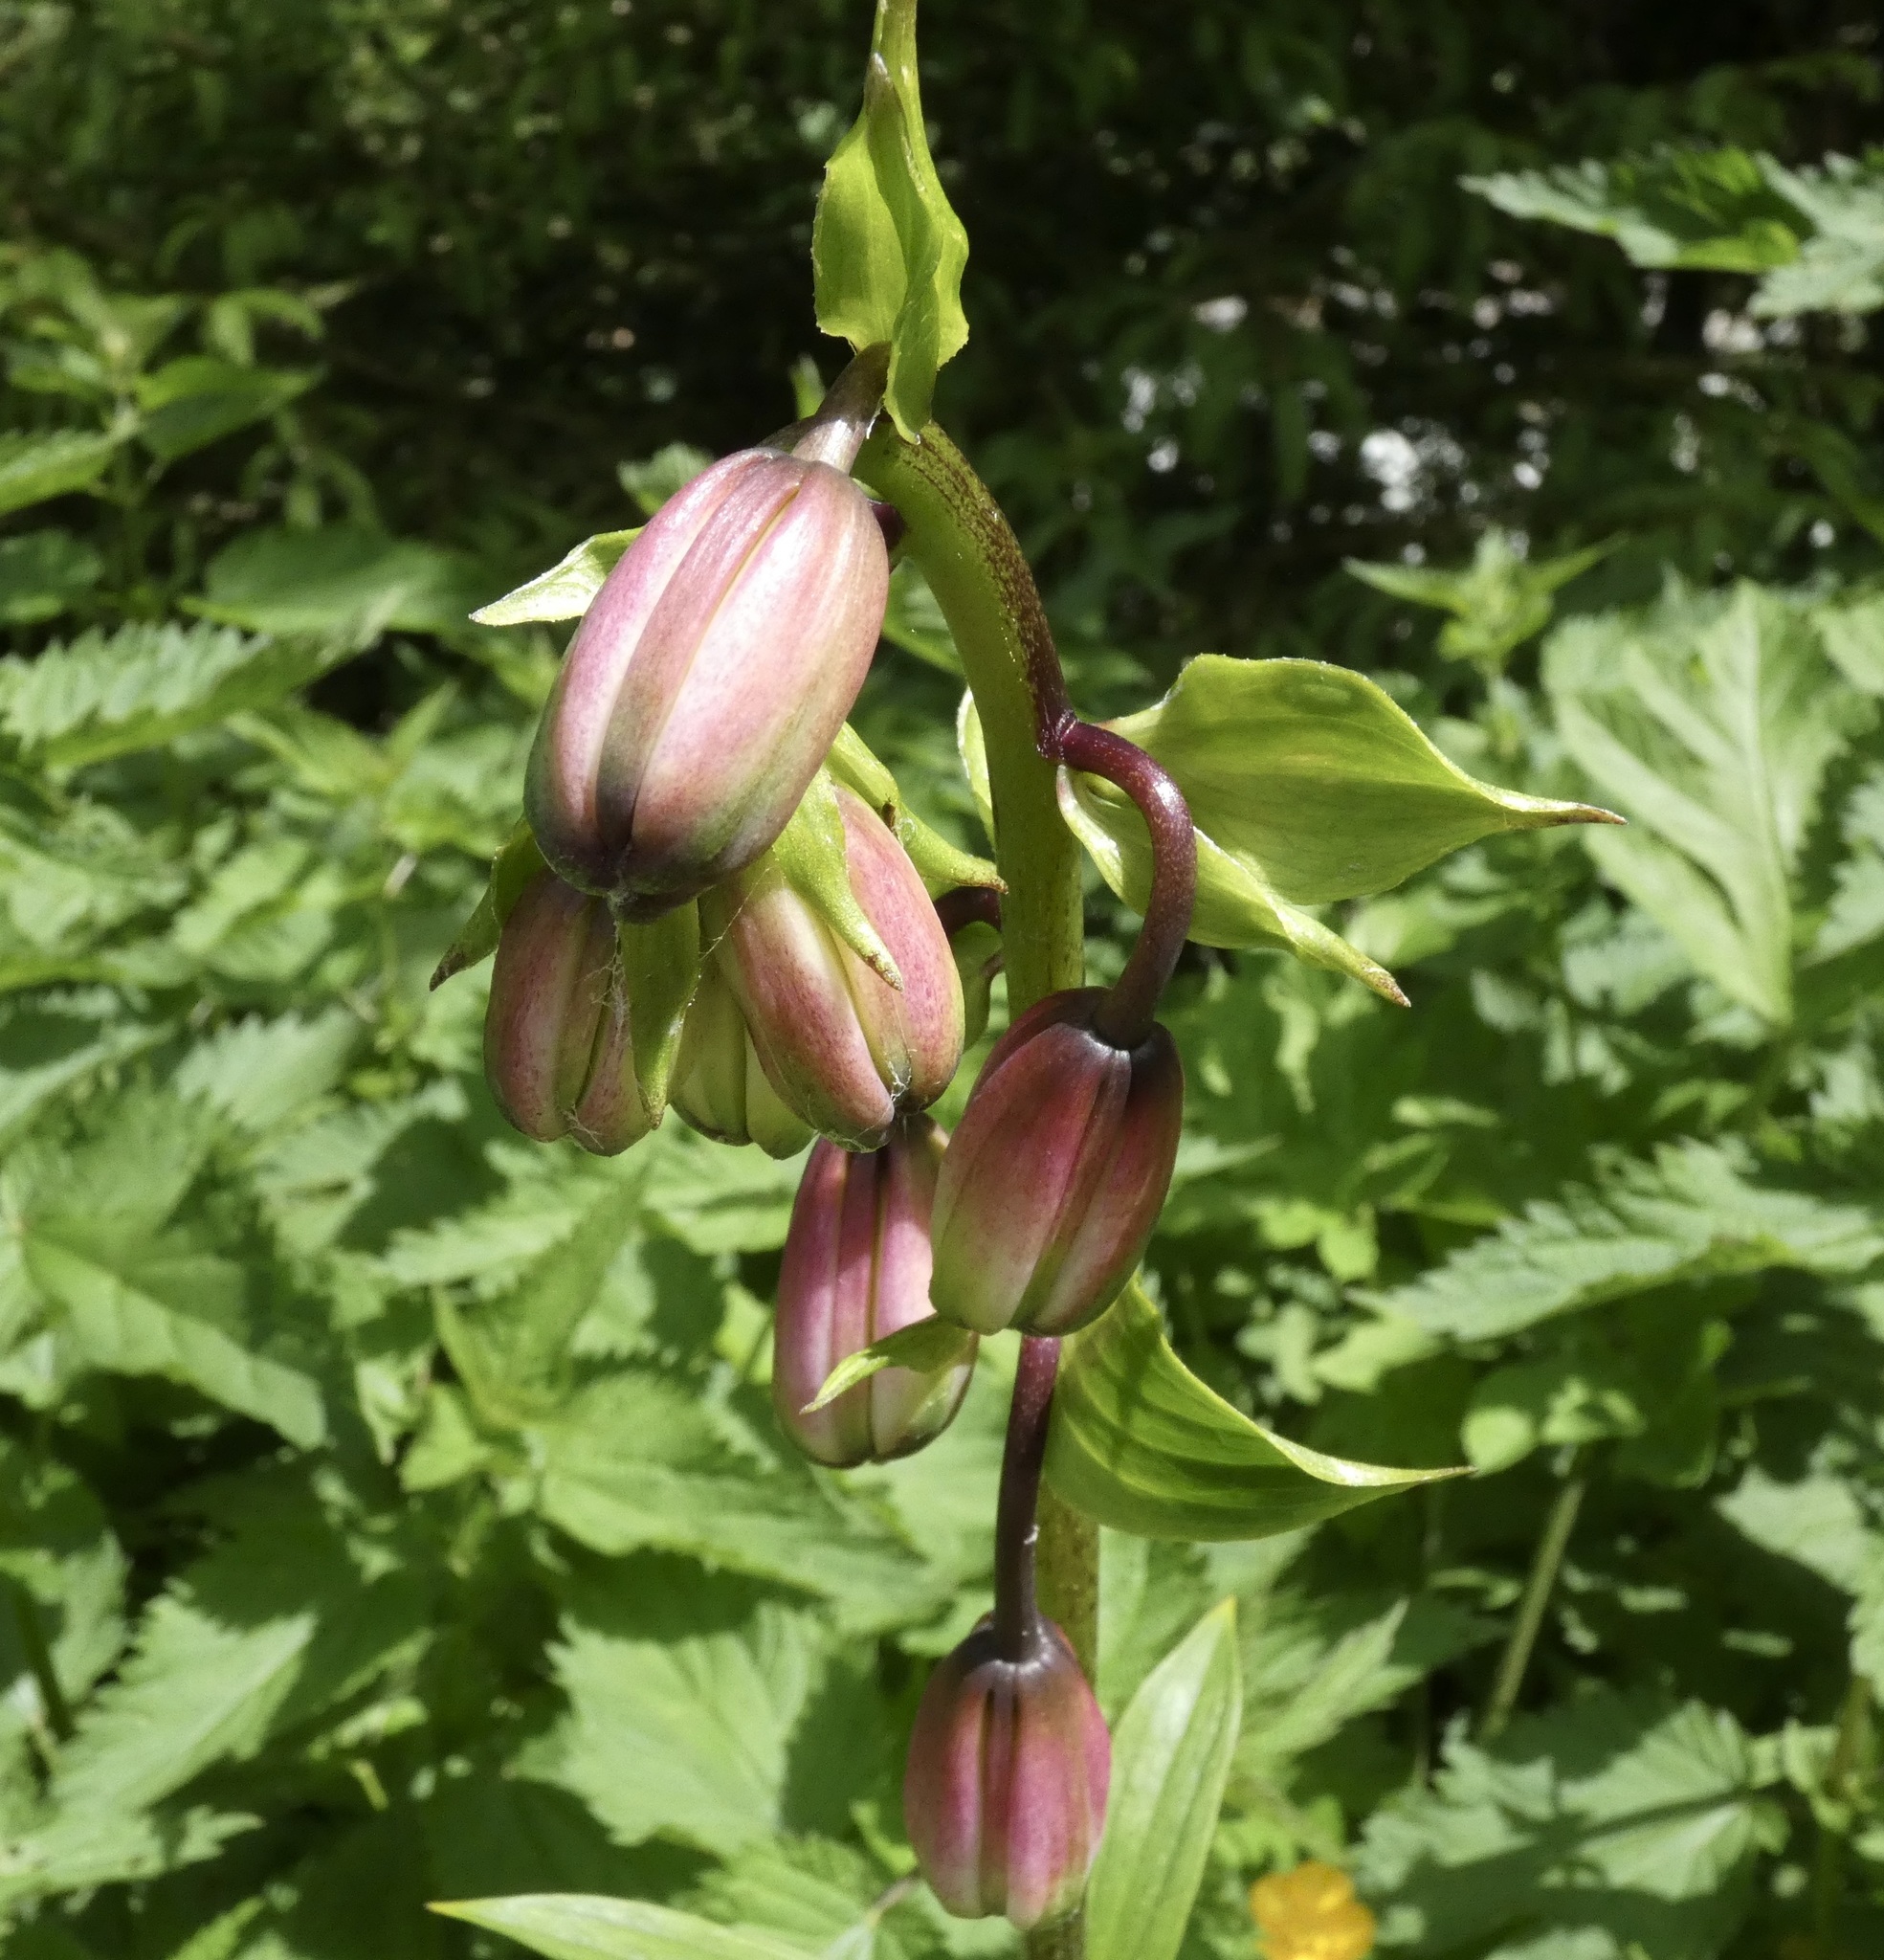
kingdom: Plantae
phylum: Tracheophyta
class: Liliopsida
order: Liliales
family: Liliaceae
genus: Lilium
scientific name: Lilium martagon
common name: Martagon lily
